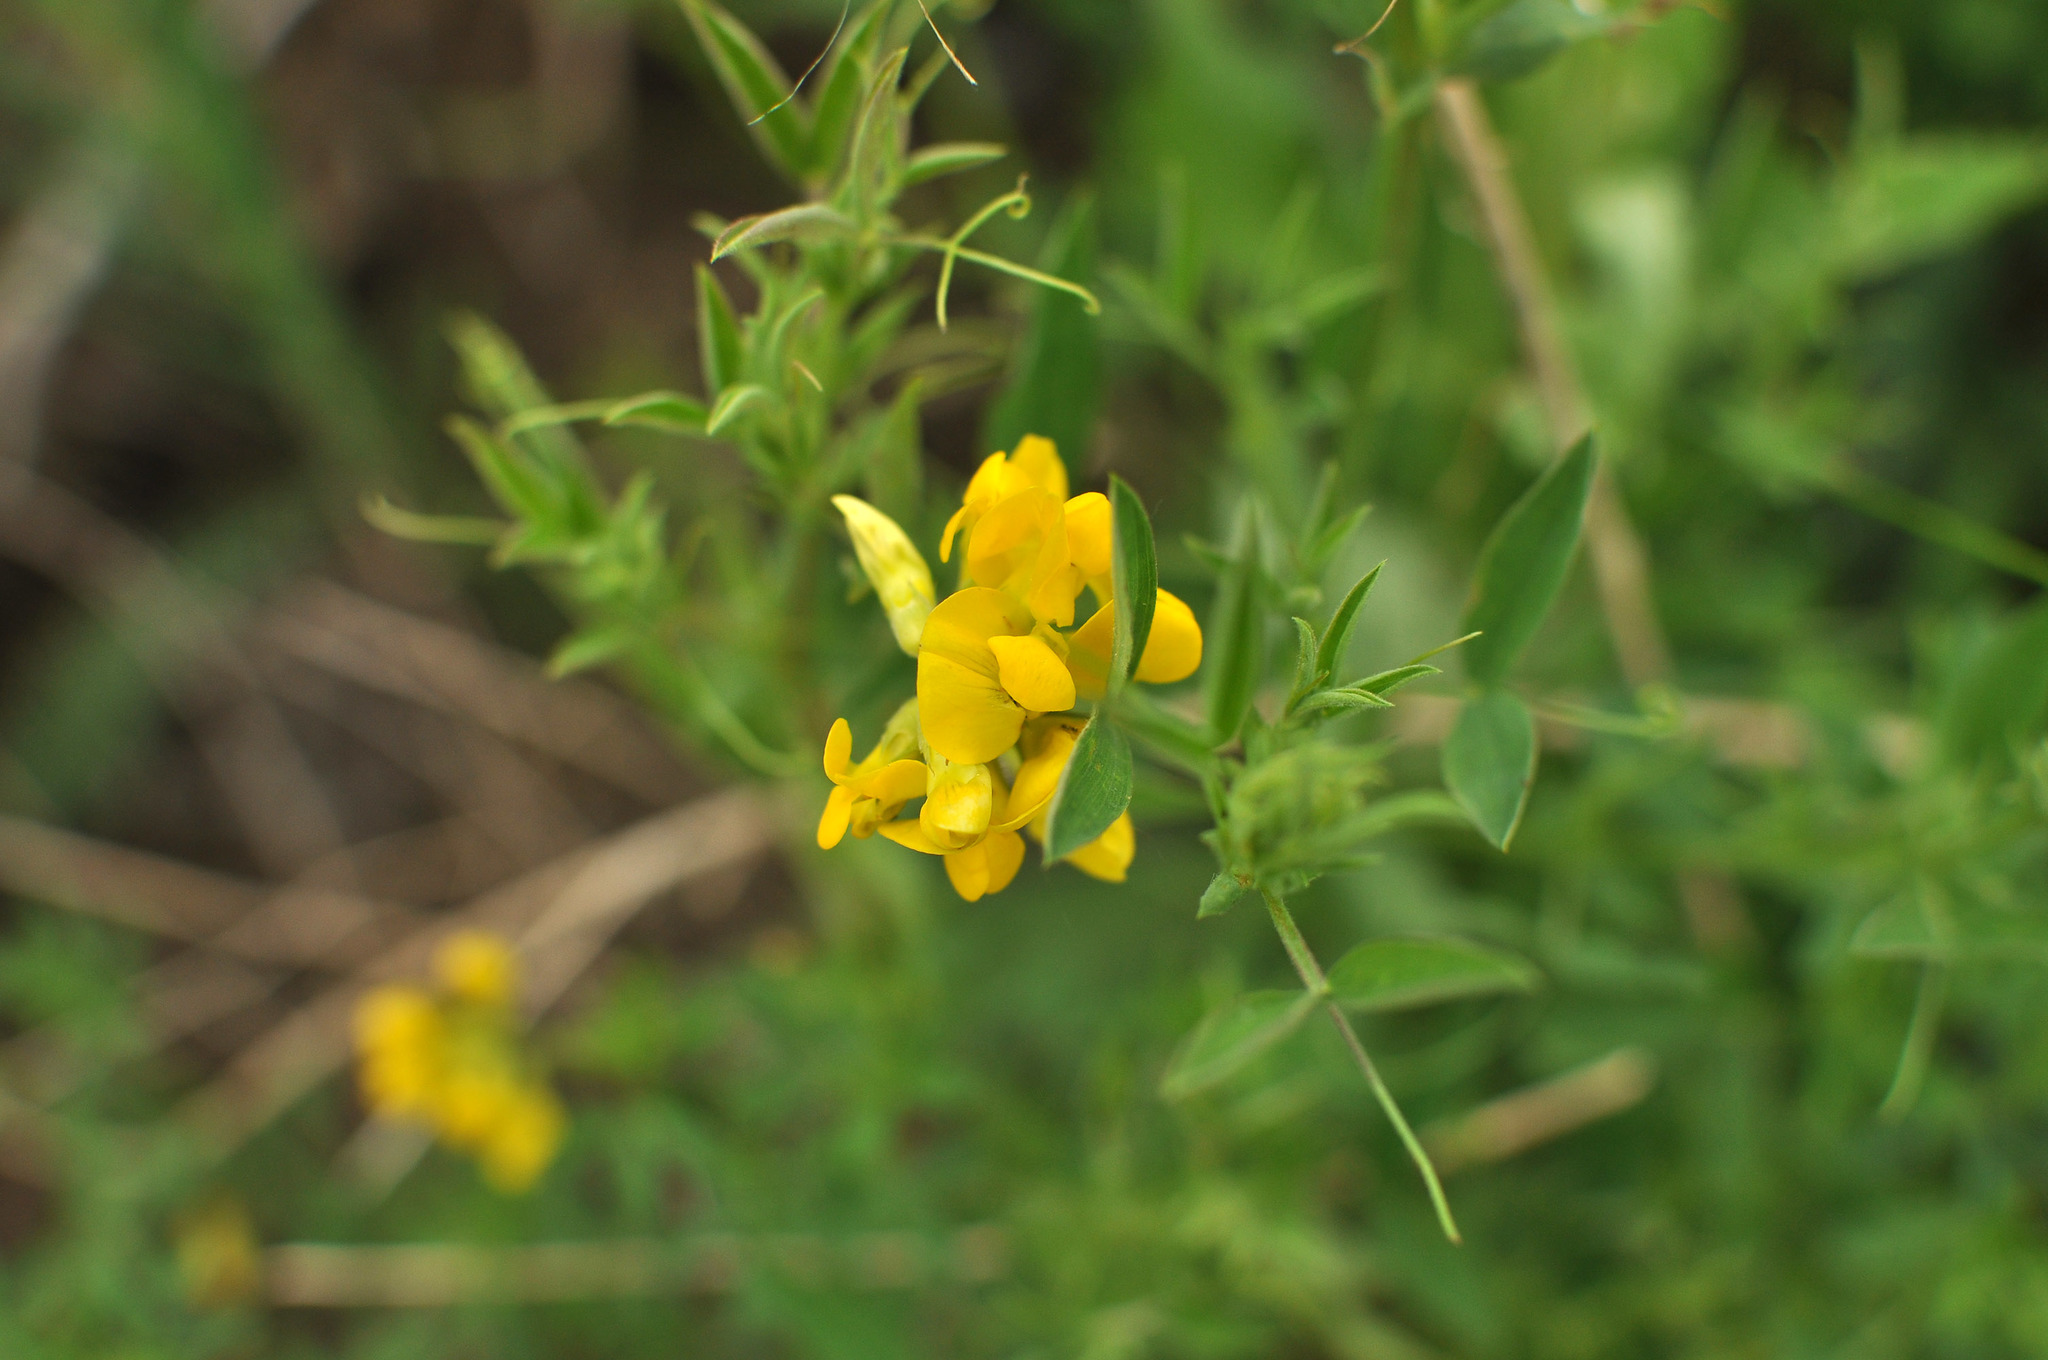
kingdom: Plantae
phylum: Tracheophyta
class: Magnoliopsida
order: Fabales
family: Fabaceae
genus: Lathyrus
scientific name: Lathyrus pratensis
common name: Meadow vetchling
